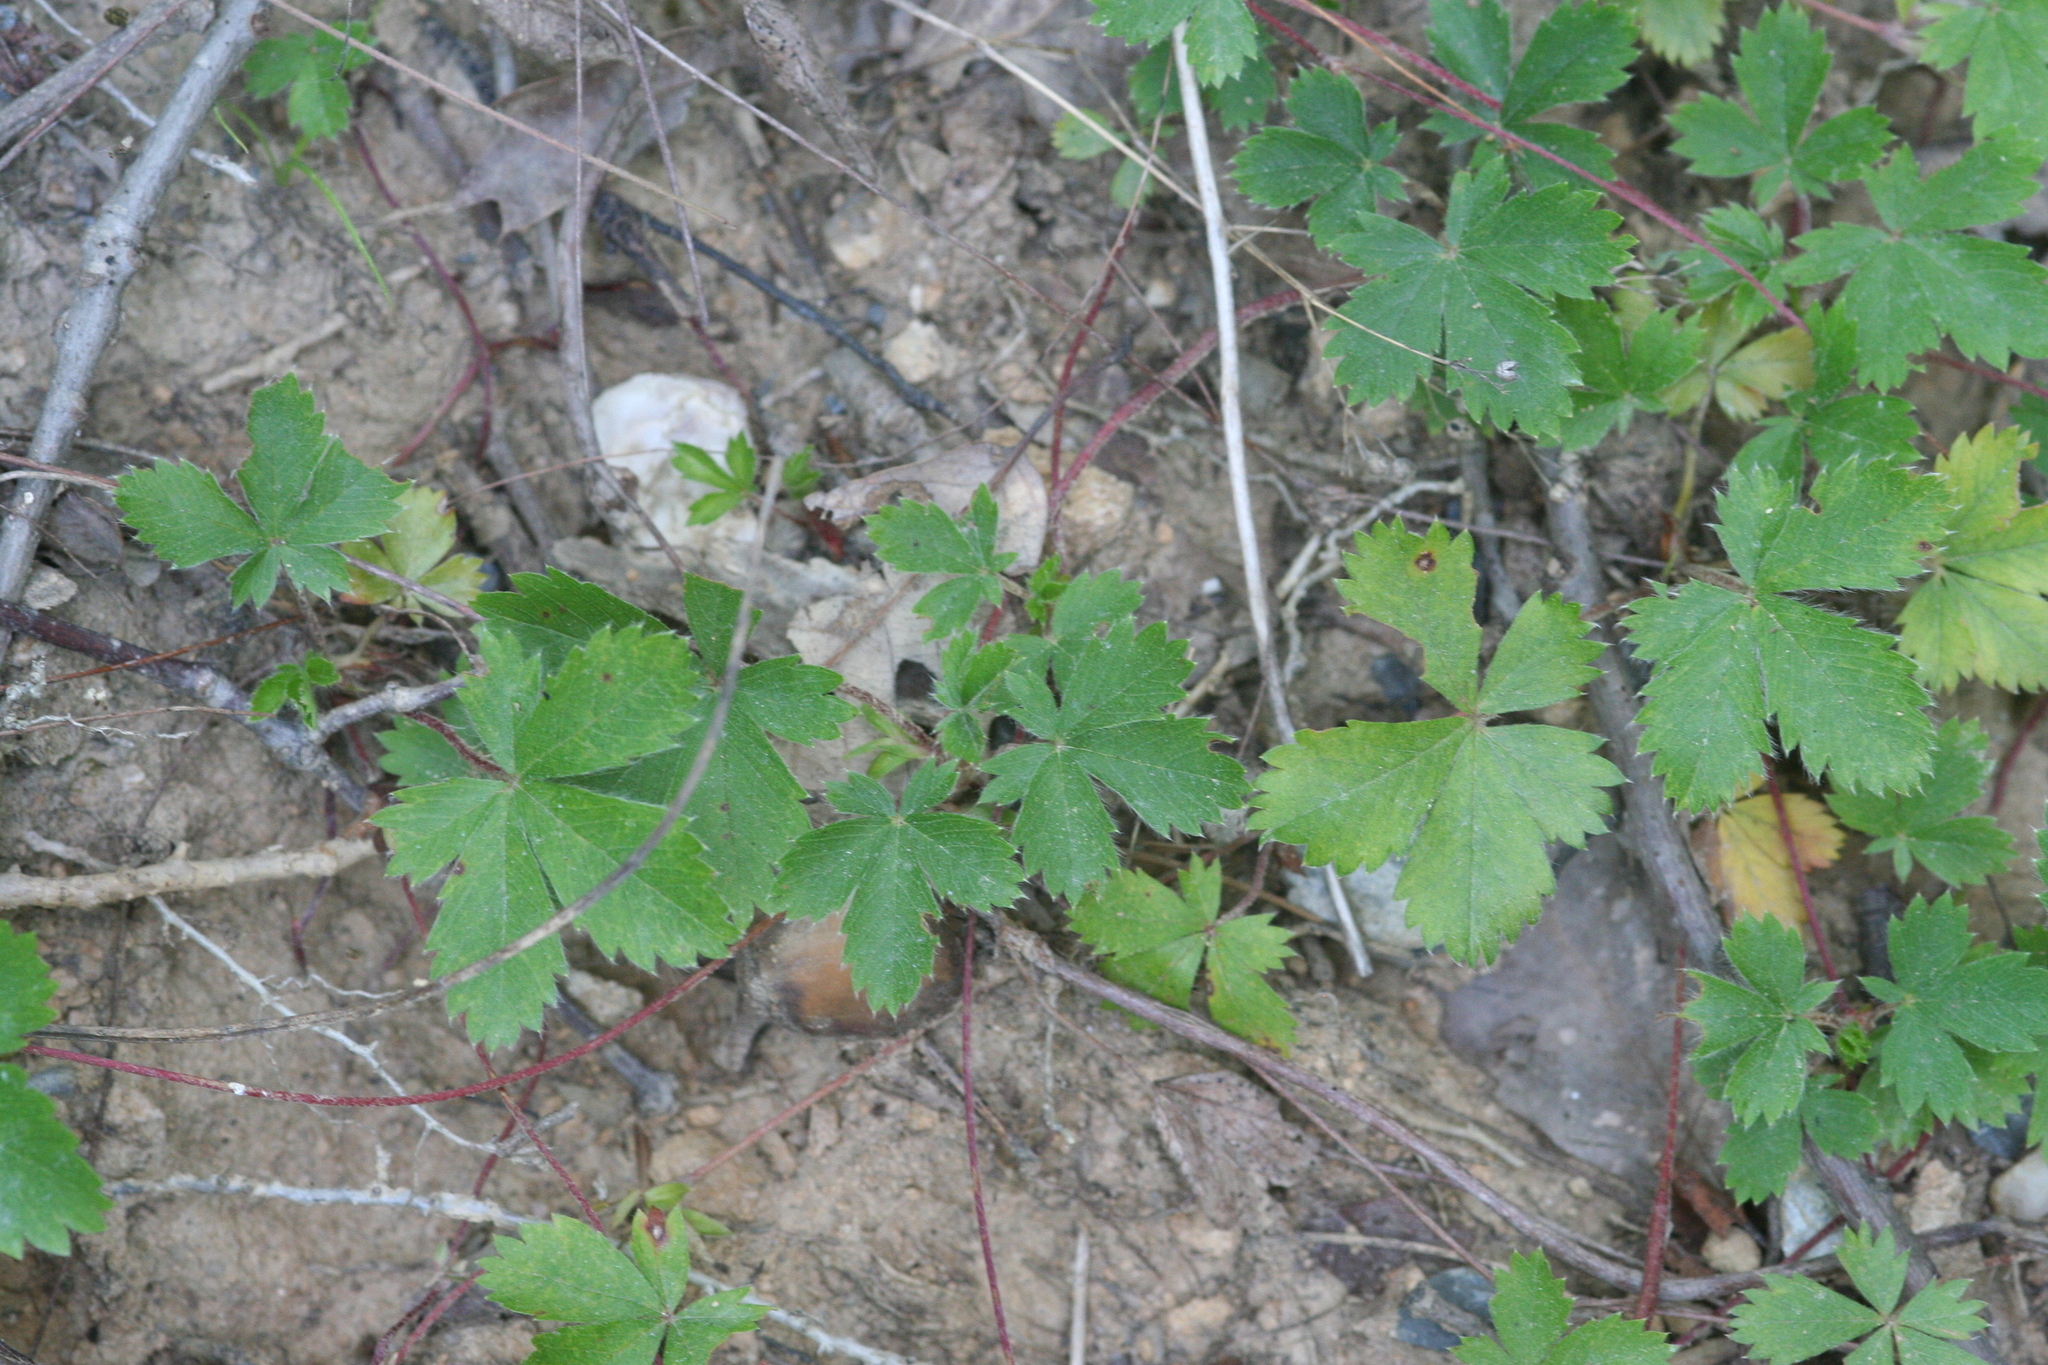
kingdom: Plantae
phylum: Tracheophyta
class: Magnoliopsida
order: Rosales
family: Rosaceae
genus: Potentilla
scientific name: Potentilla canadensis
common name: Canada cinquefoil
